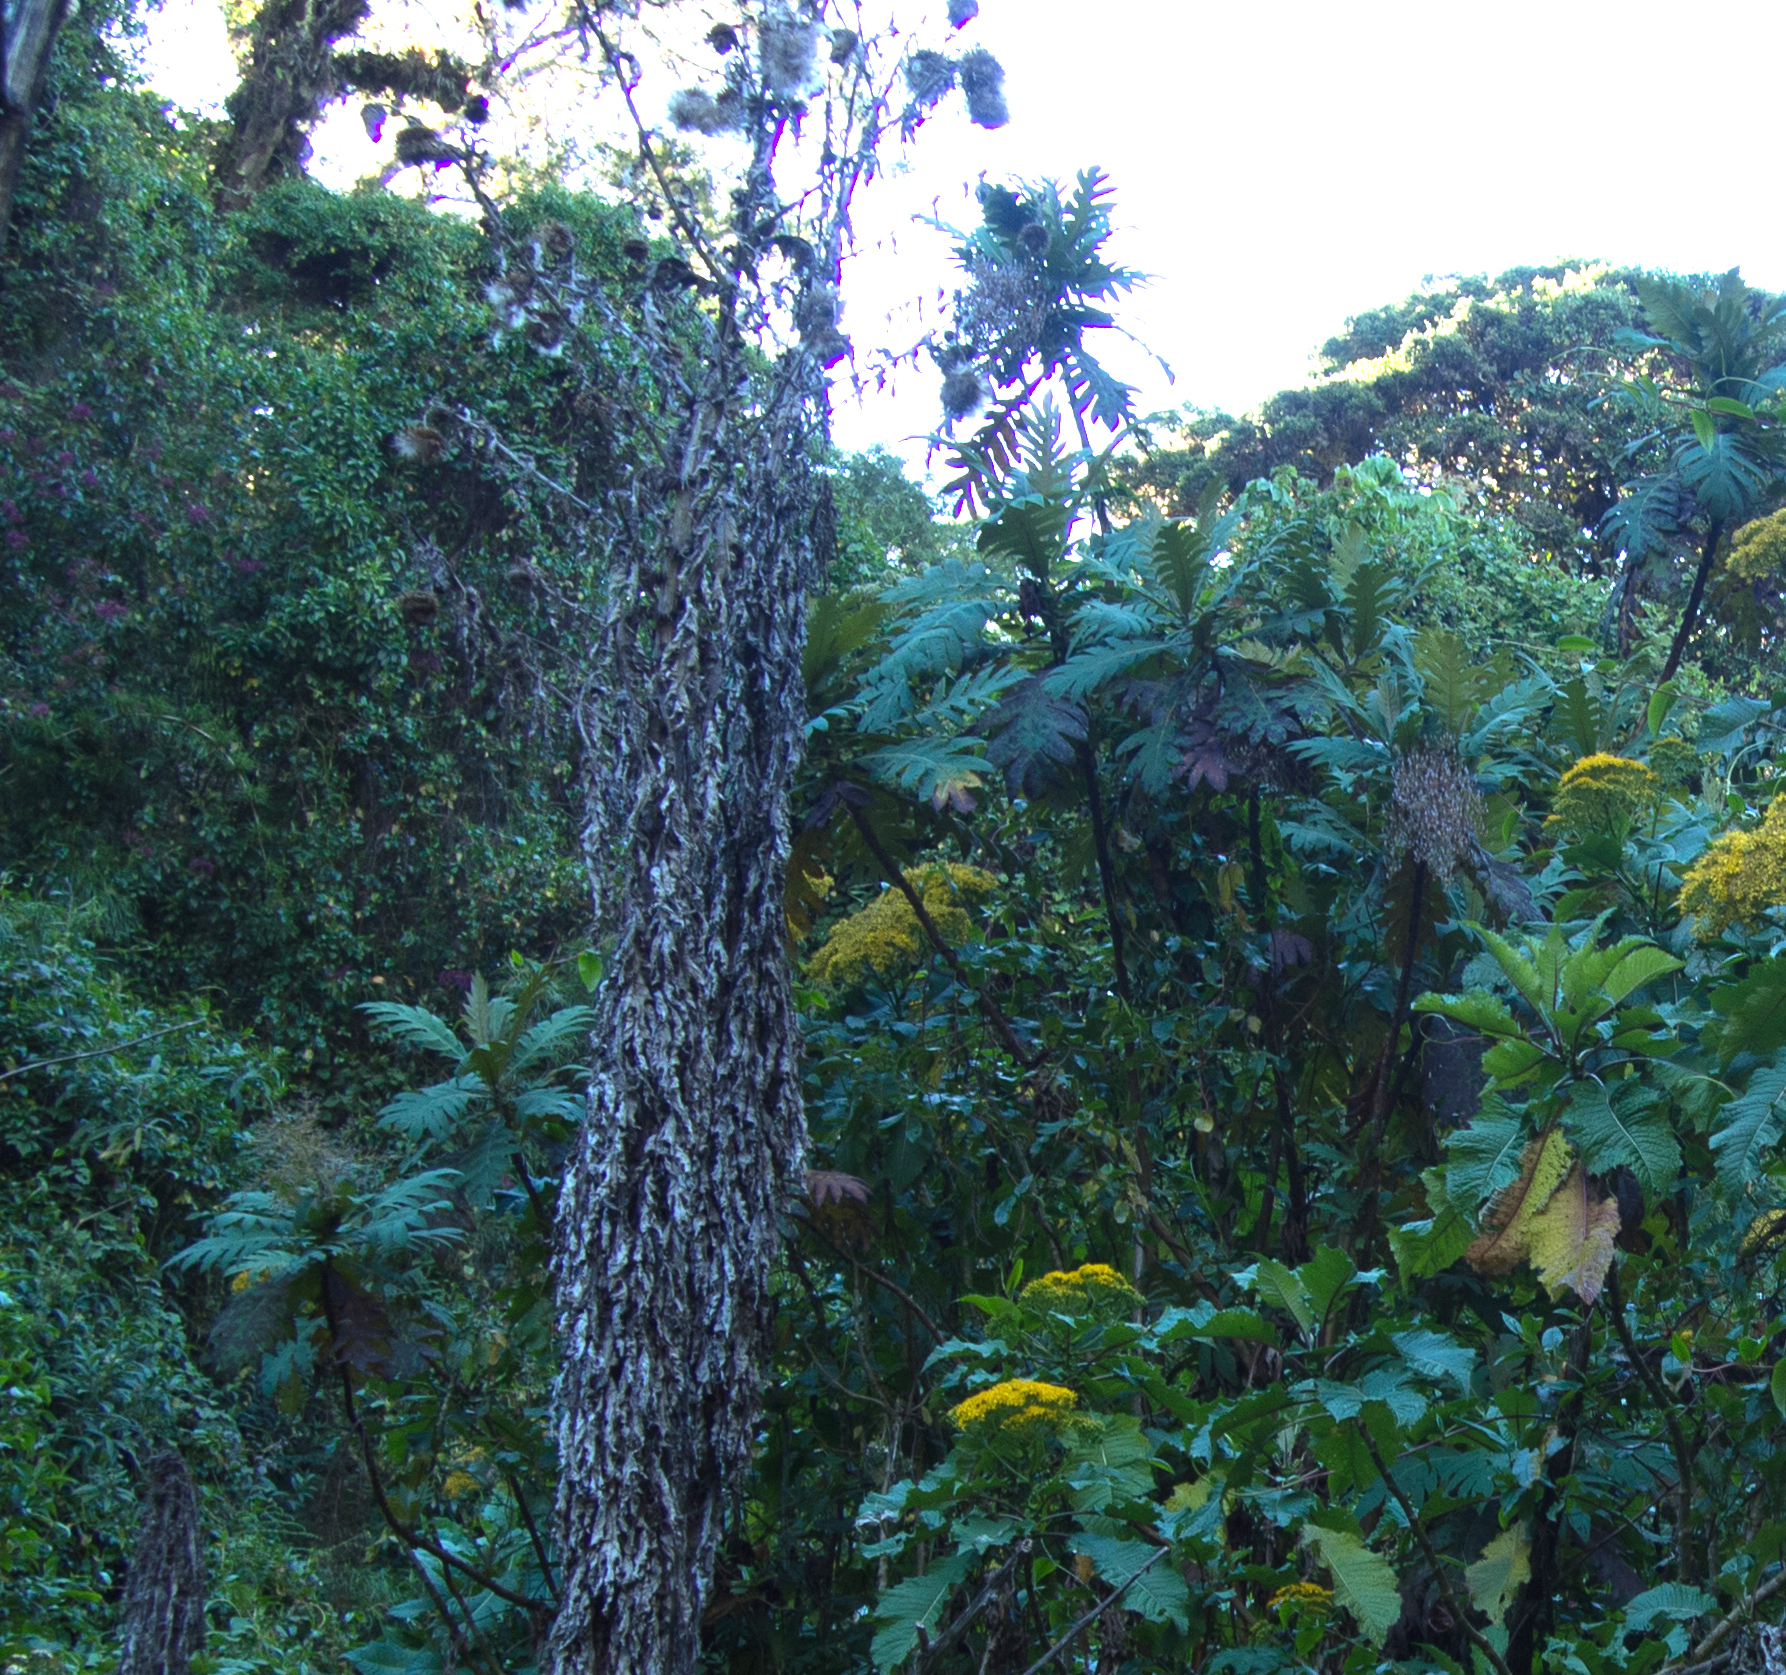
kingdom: Plantae
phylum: Tracheophyta
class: Magnoliopsida
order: Ranunculales
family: Papaveraceae
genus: Bocconia
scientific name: Bocconia frutescens
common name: Tree poppy
